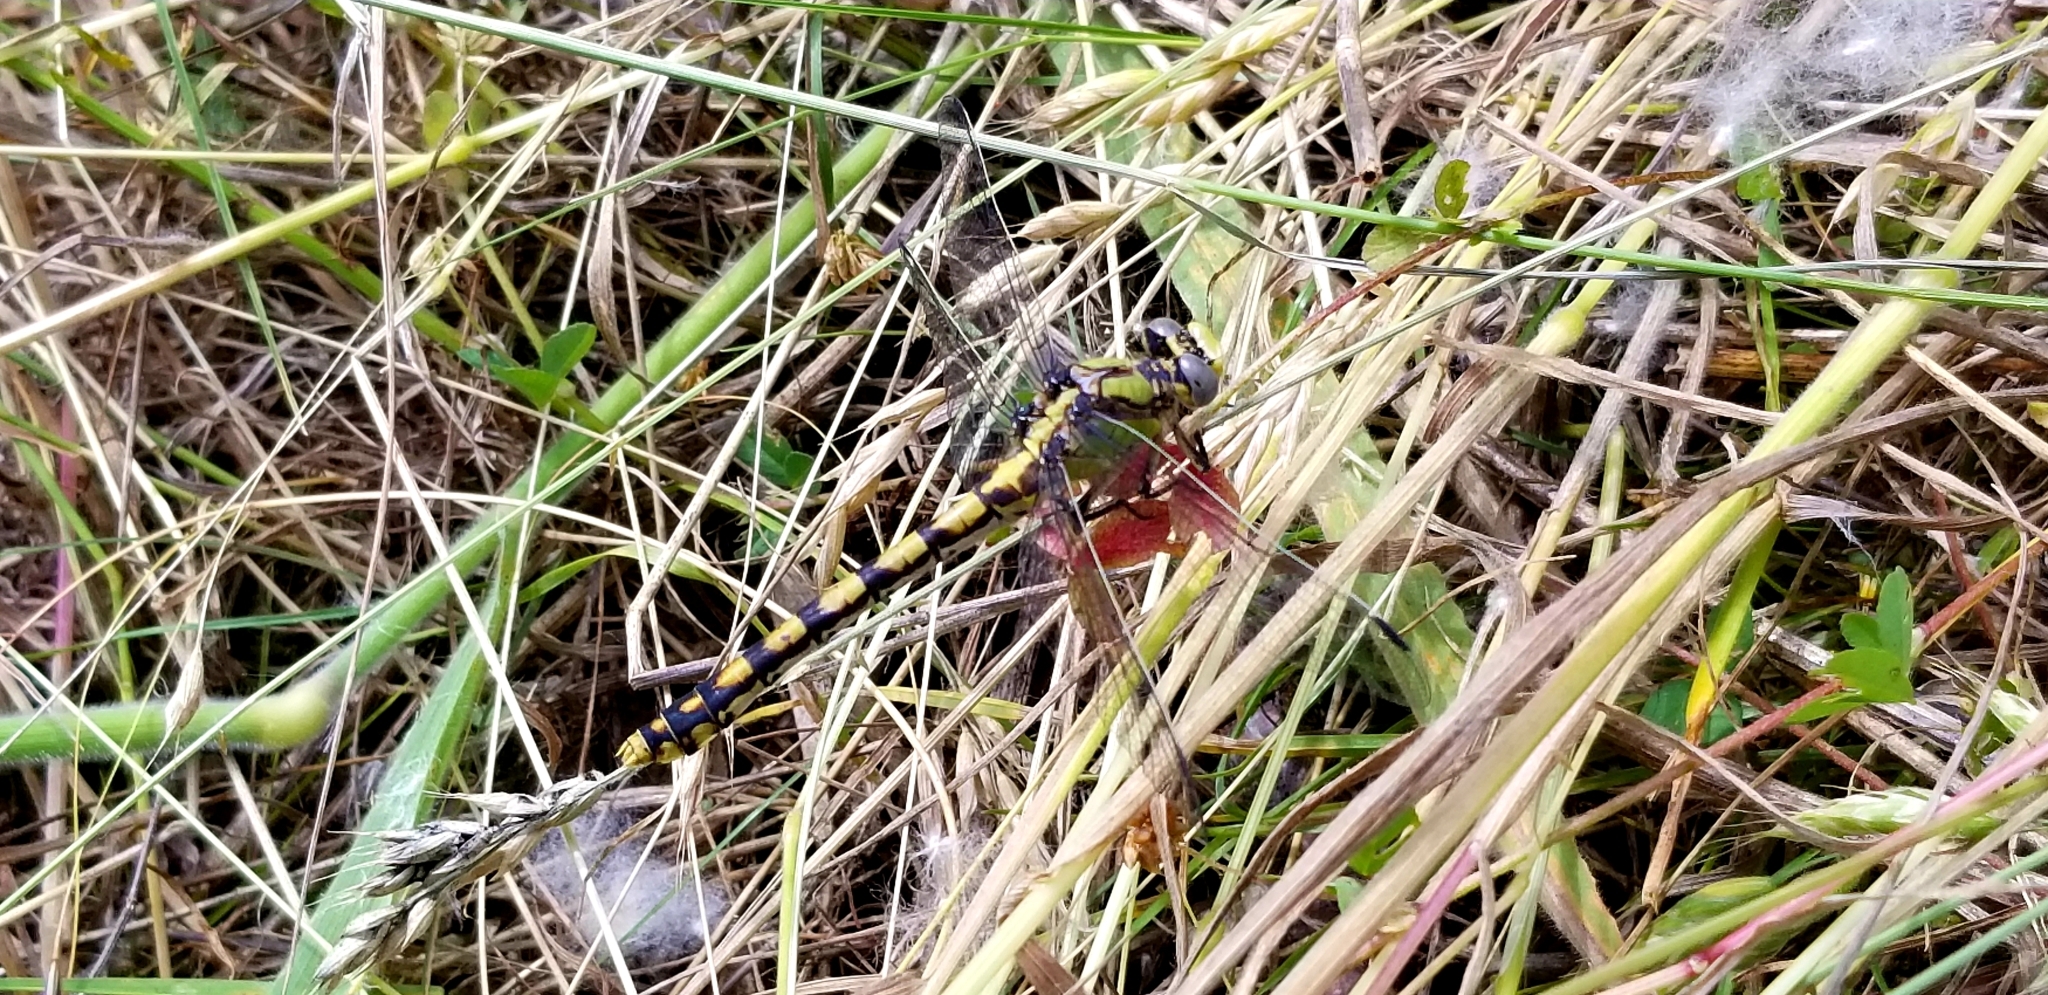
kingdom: Animalia
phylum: Arthropoda
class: Insecta
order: Odonata
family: Gomphidae
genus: Ophiogomphus
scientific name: Ophiogomphus occidentis
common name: Sinuous snaketail
